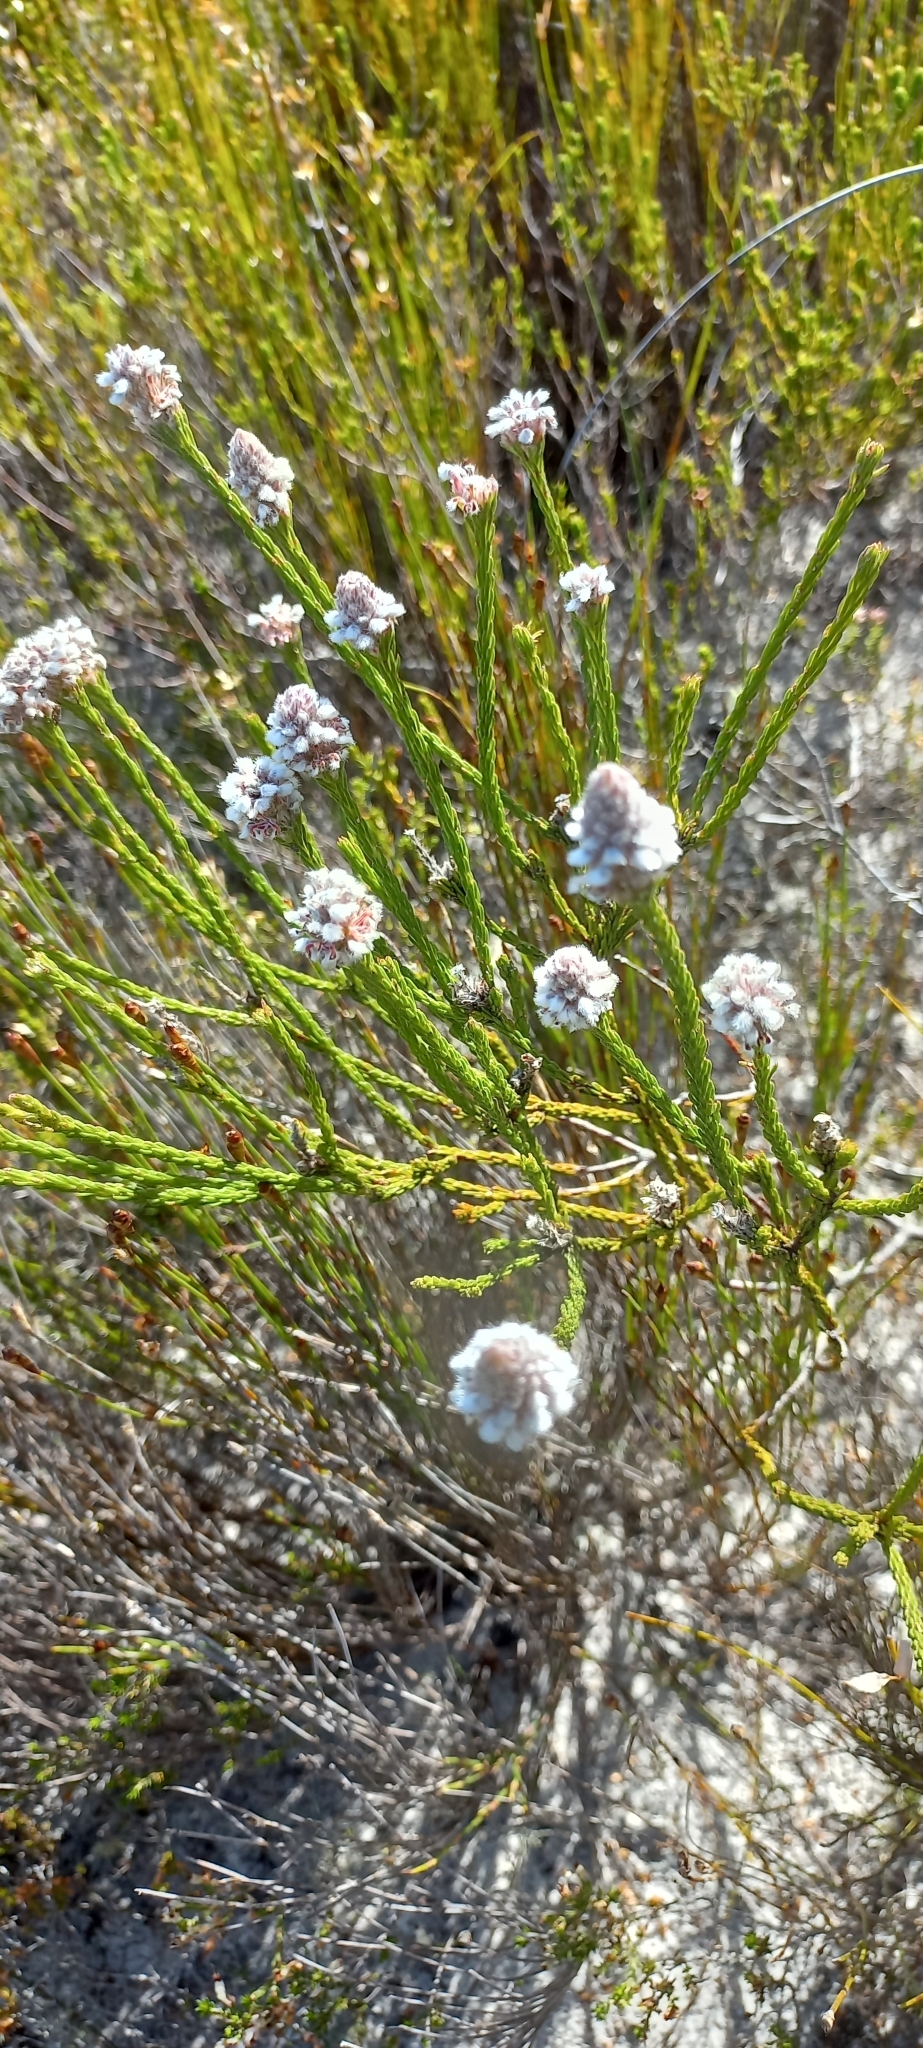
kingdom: Plantae
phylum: Tracheophyta
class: Magnoliopsida
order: Proteales
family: Proteaceae
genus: Spatalla
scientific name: Spatalla ericoides
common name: Erica-leaf spoon
